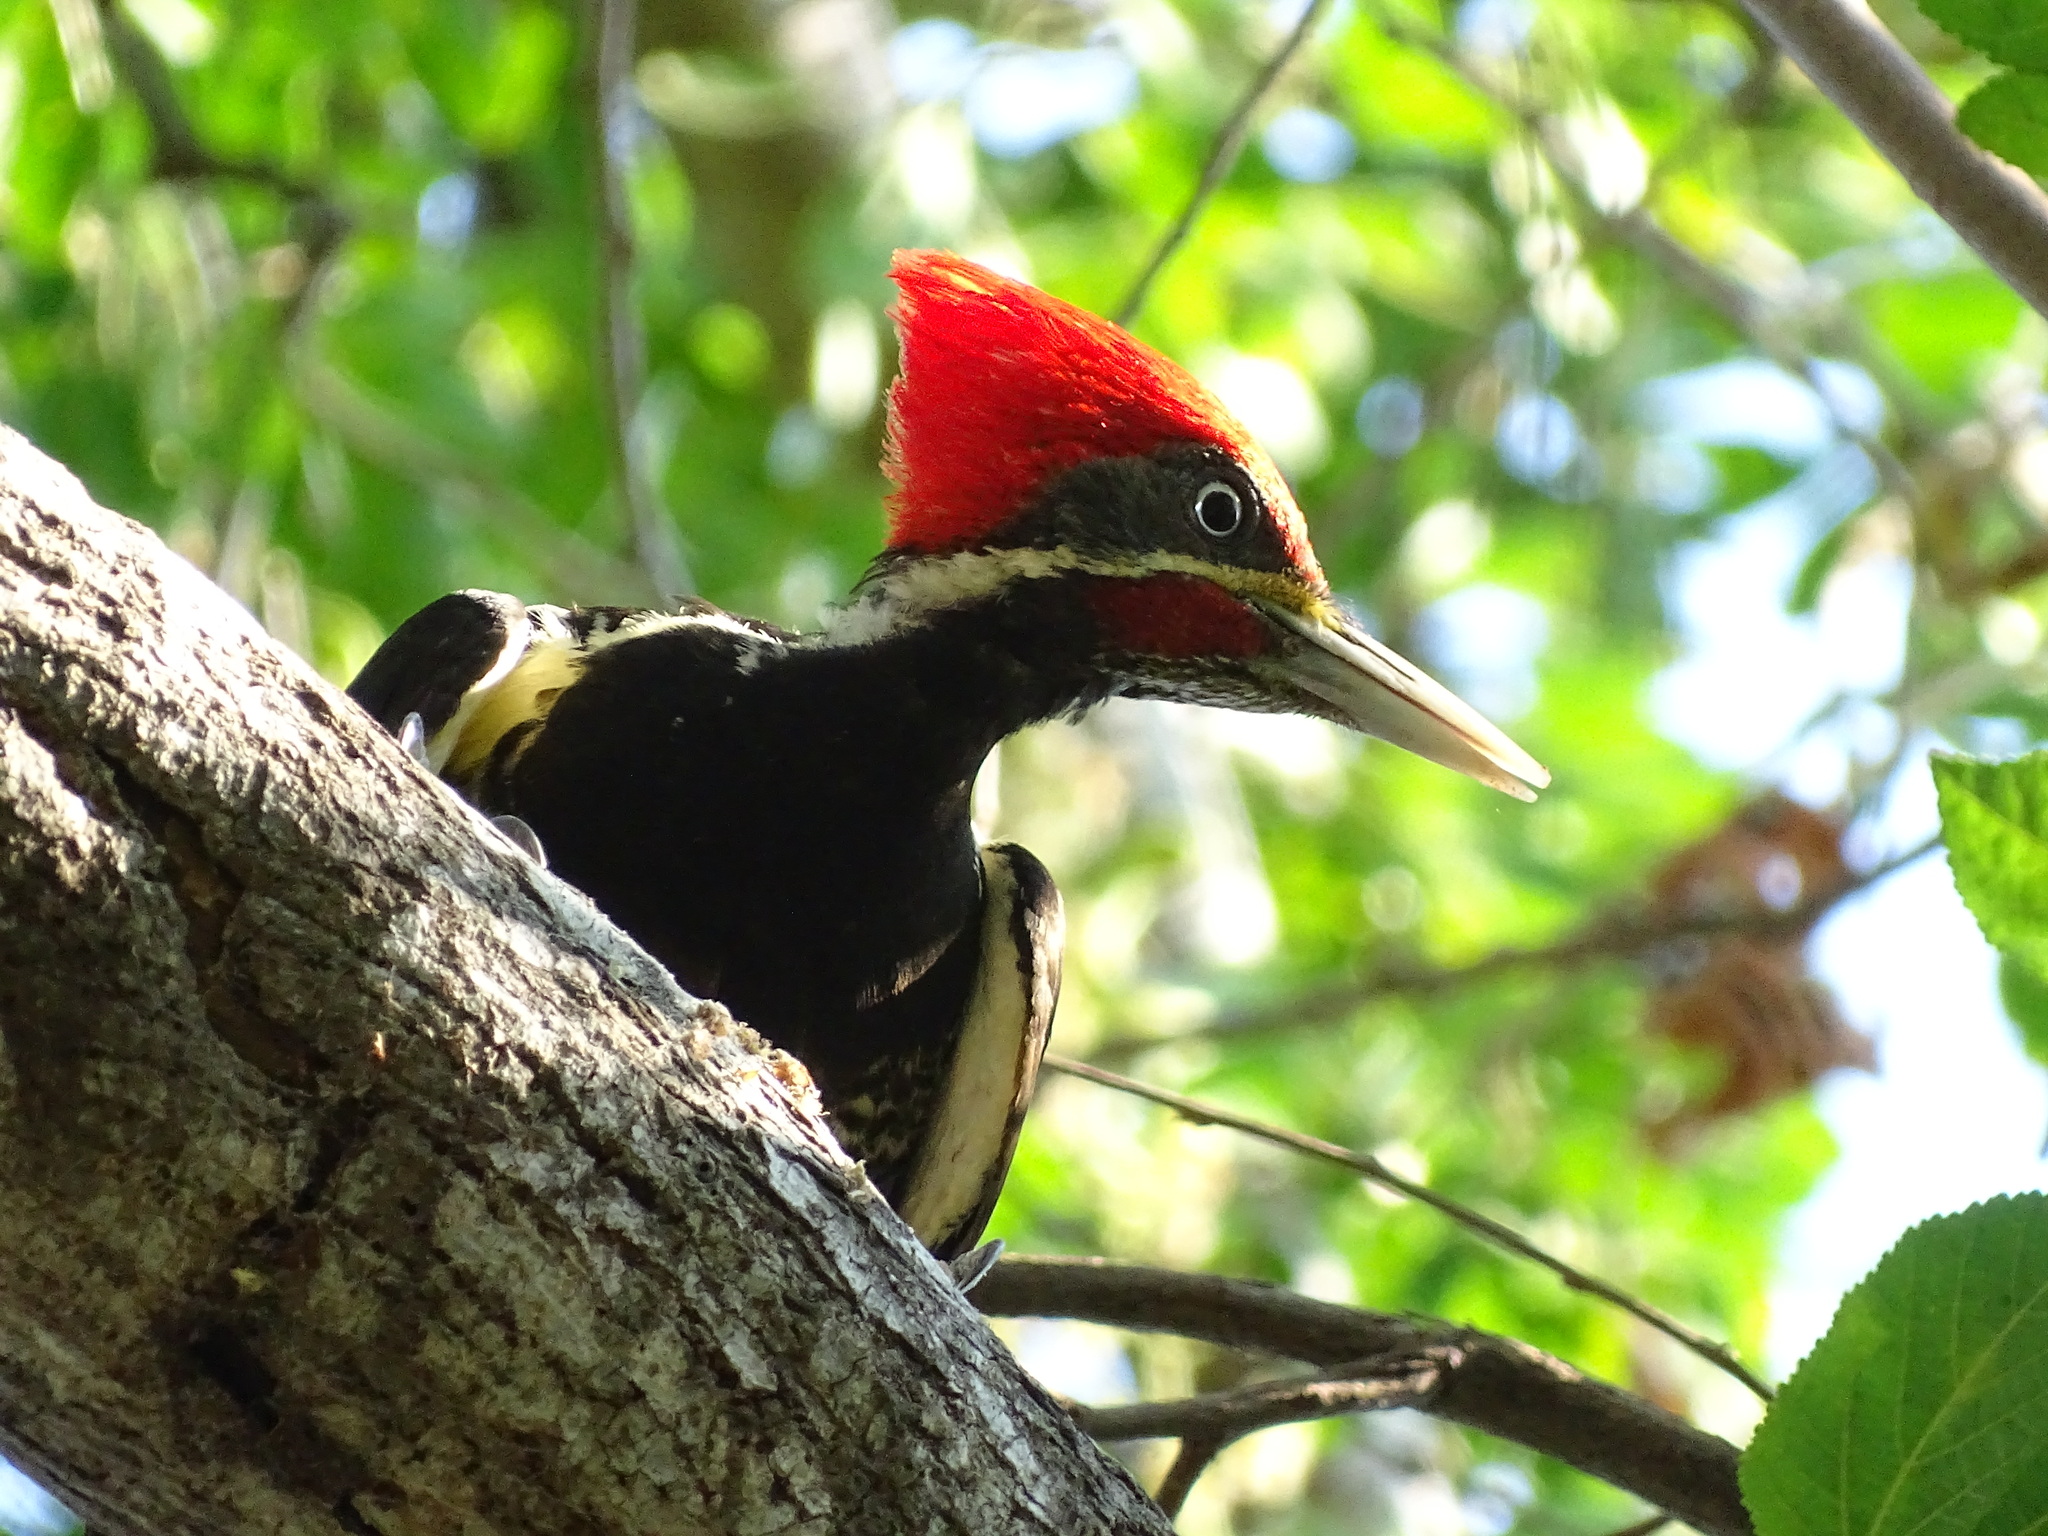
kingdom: Animalia
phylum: Chordata
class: Aves
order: Piciformes
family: Picidae
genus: Dryocopus
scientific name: Dryocopus lineatus
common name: Lineated woodpecker
